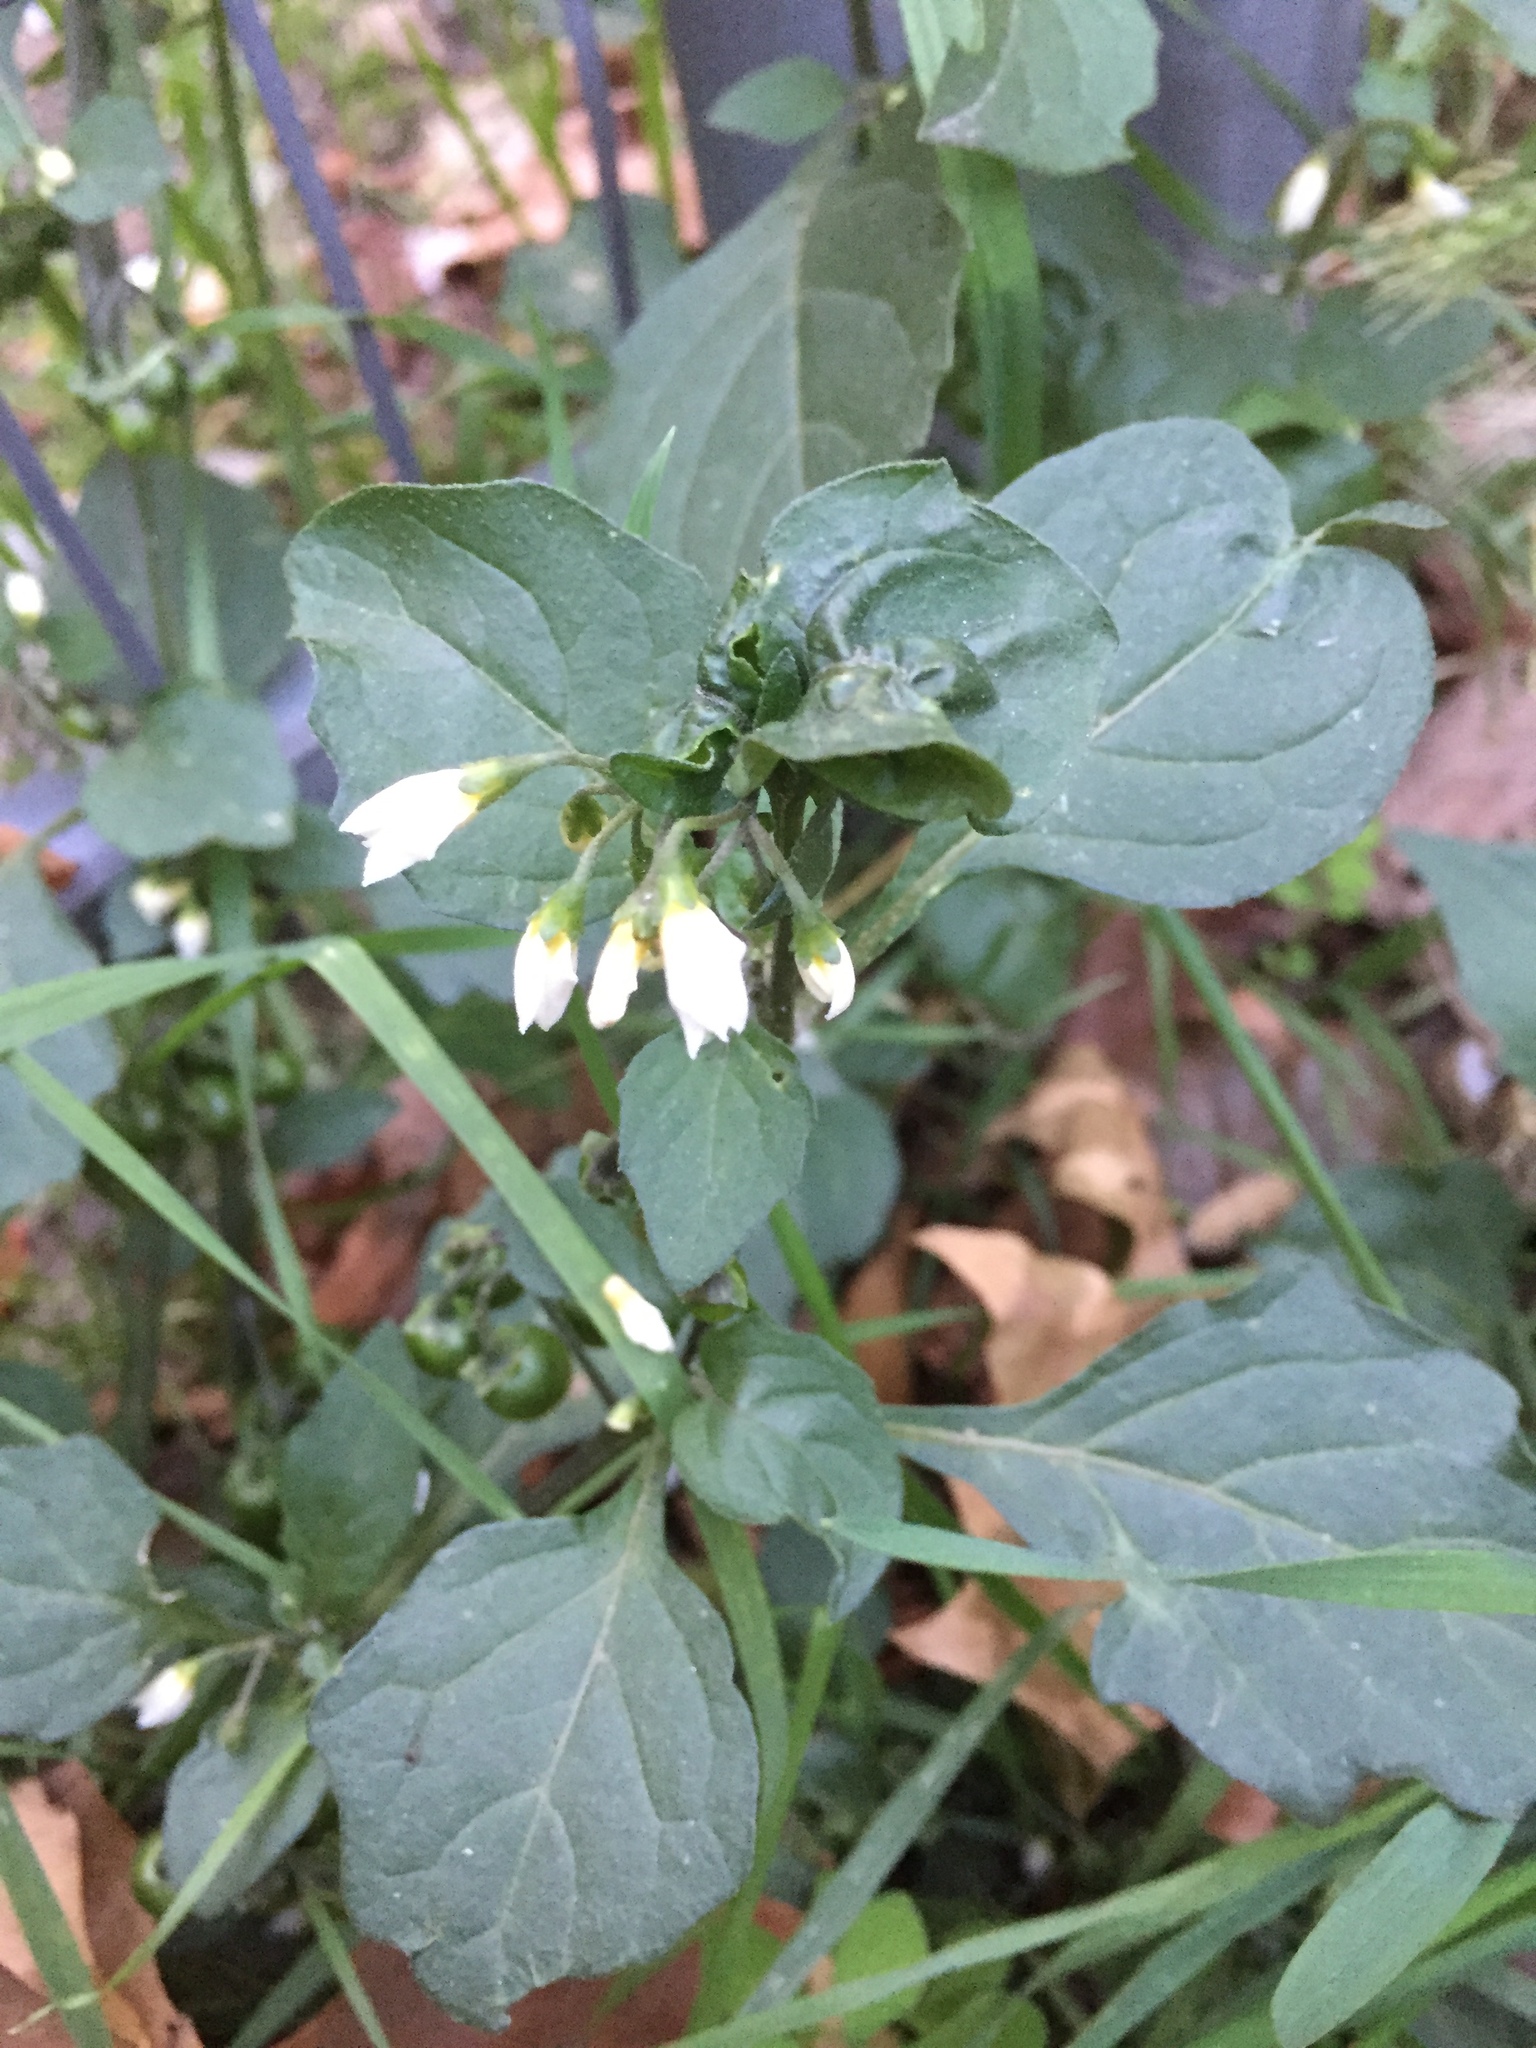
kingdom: Plantae
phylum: Tracheophyta
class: Magnoliopsida
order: Solanales
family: Solanaceae
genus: Solanum
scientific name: Solanum nigrum
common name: Black nightshade
